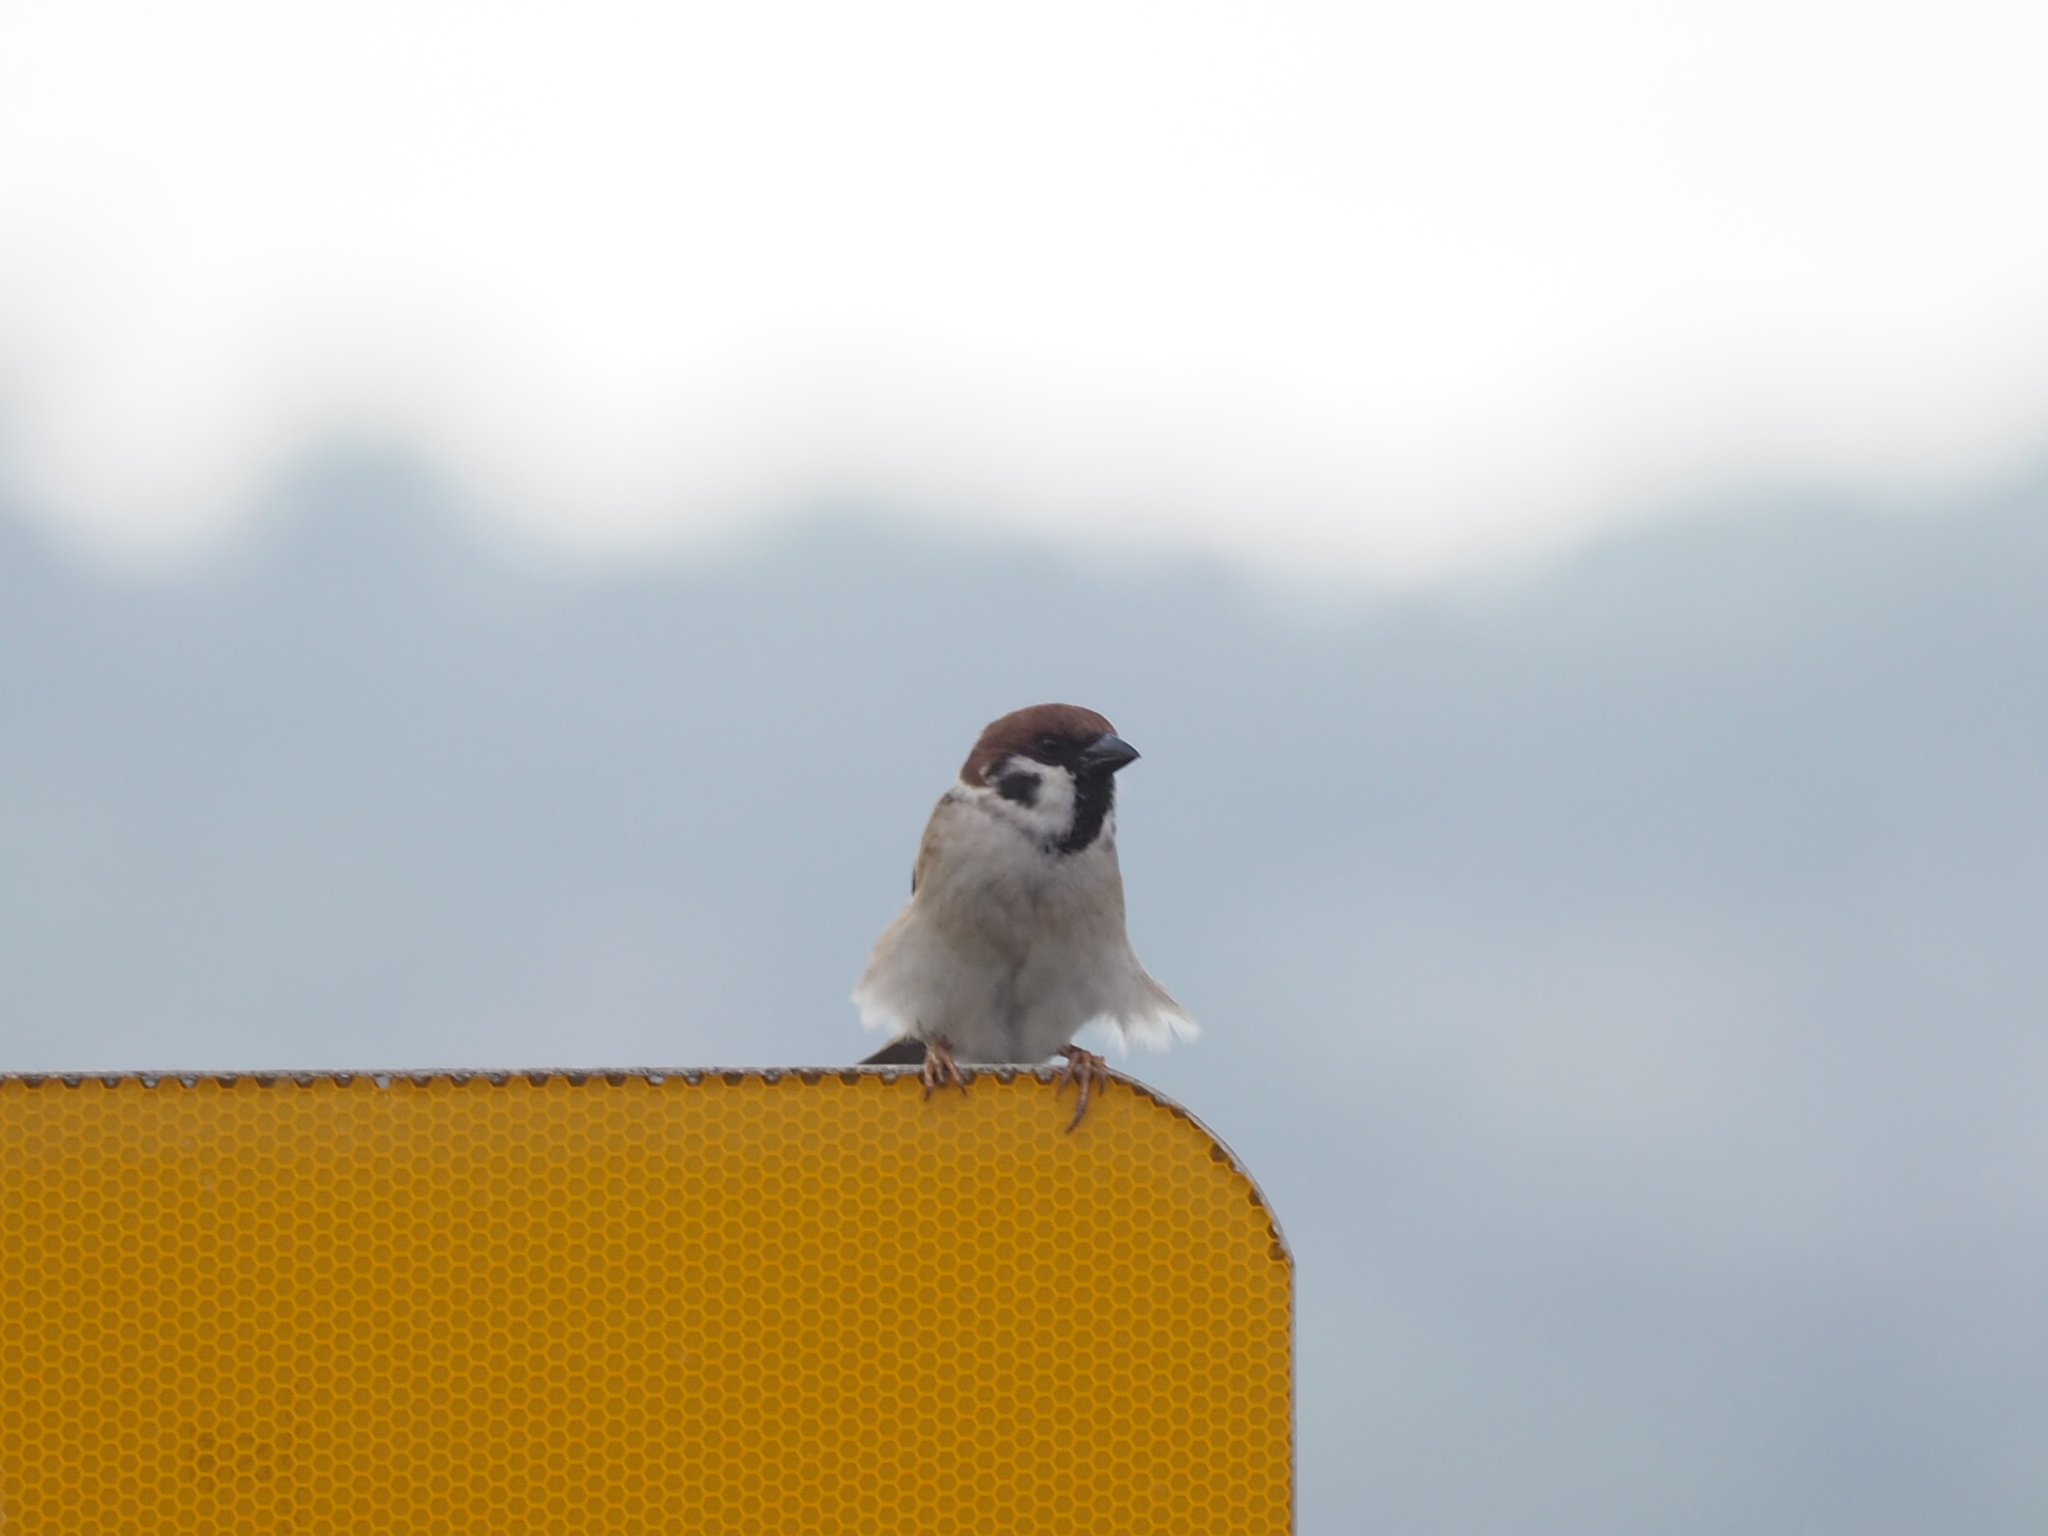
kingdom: Animalia
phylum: Chordata
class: Aves
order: Passeriformes
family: Passeridae
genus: Passer
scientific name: Passer montanus
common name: Eurasian tree sparrow
